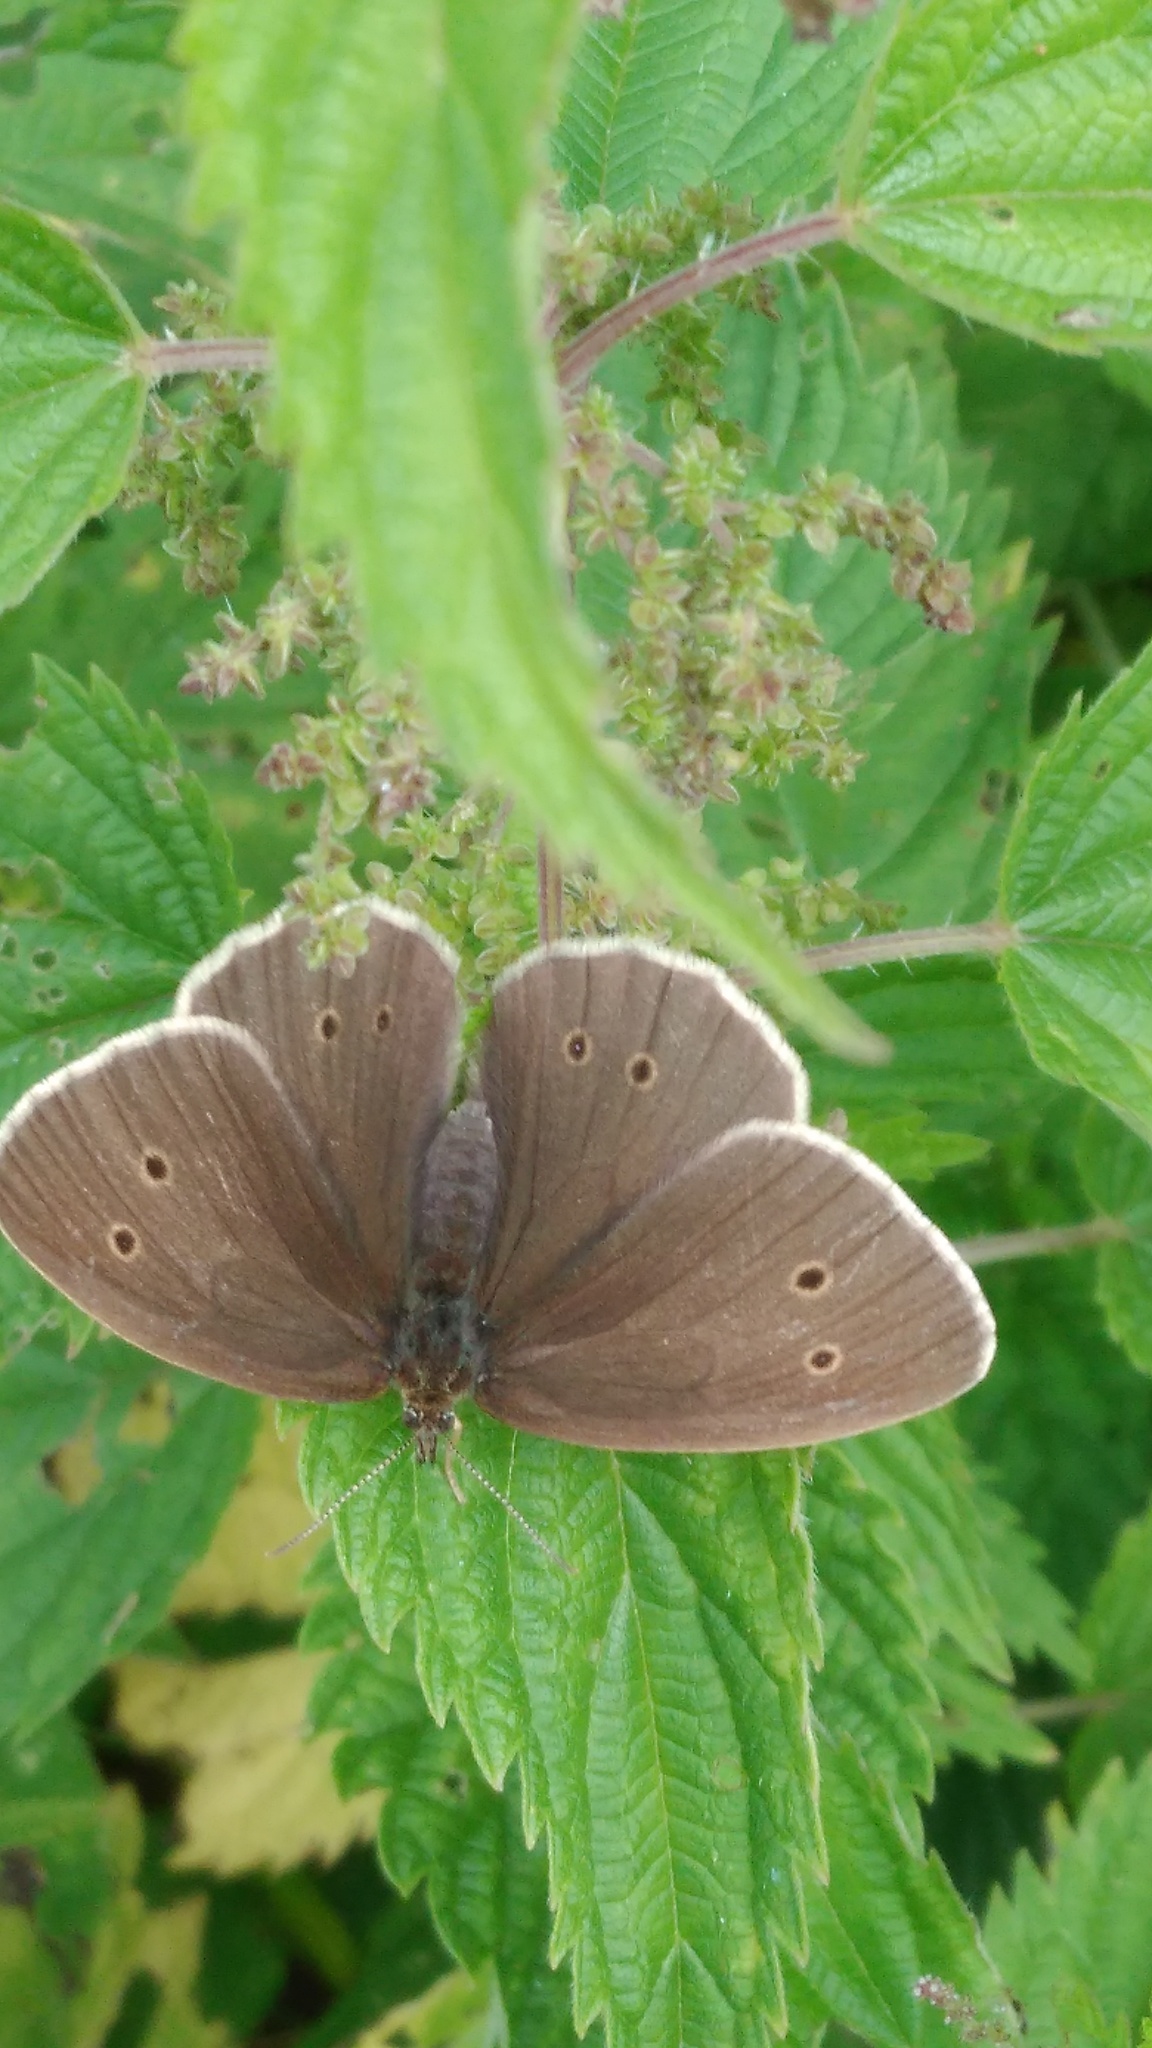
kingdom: Animalia
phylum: Arthropoda
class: Insecta
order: Lepidoptera
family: Nymphalidae
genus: Aphantopus
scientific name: Aphantopus hyperantus
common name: Ringlet
